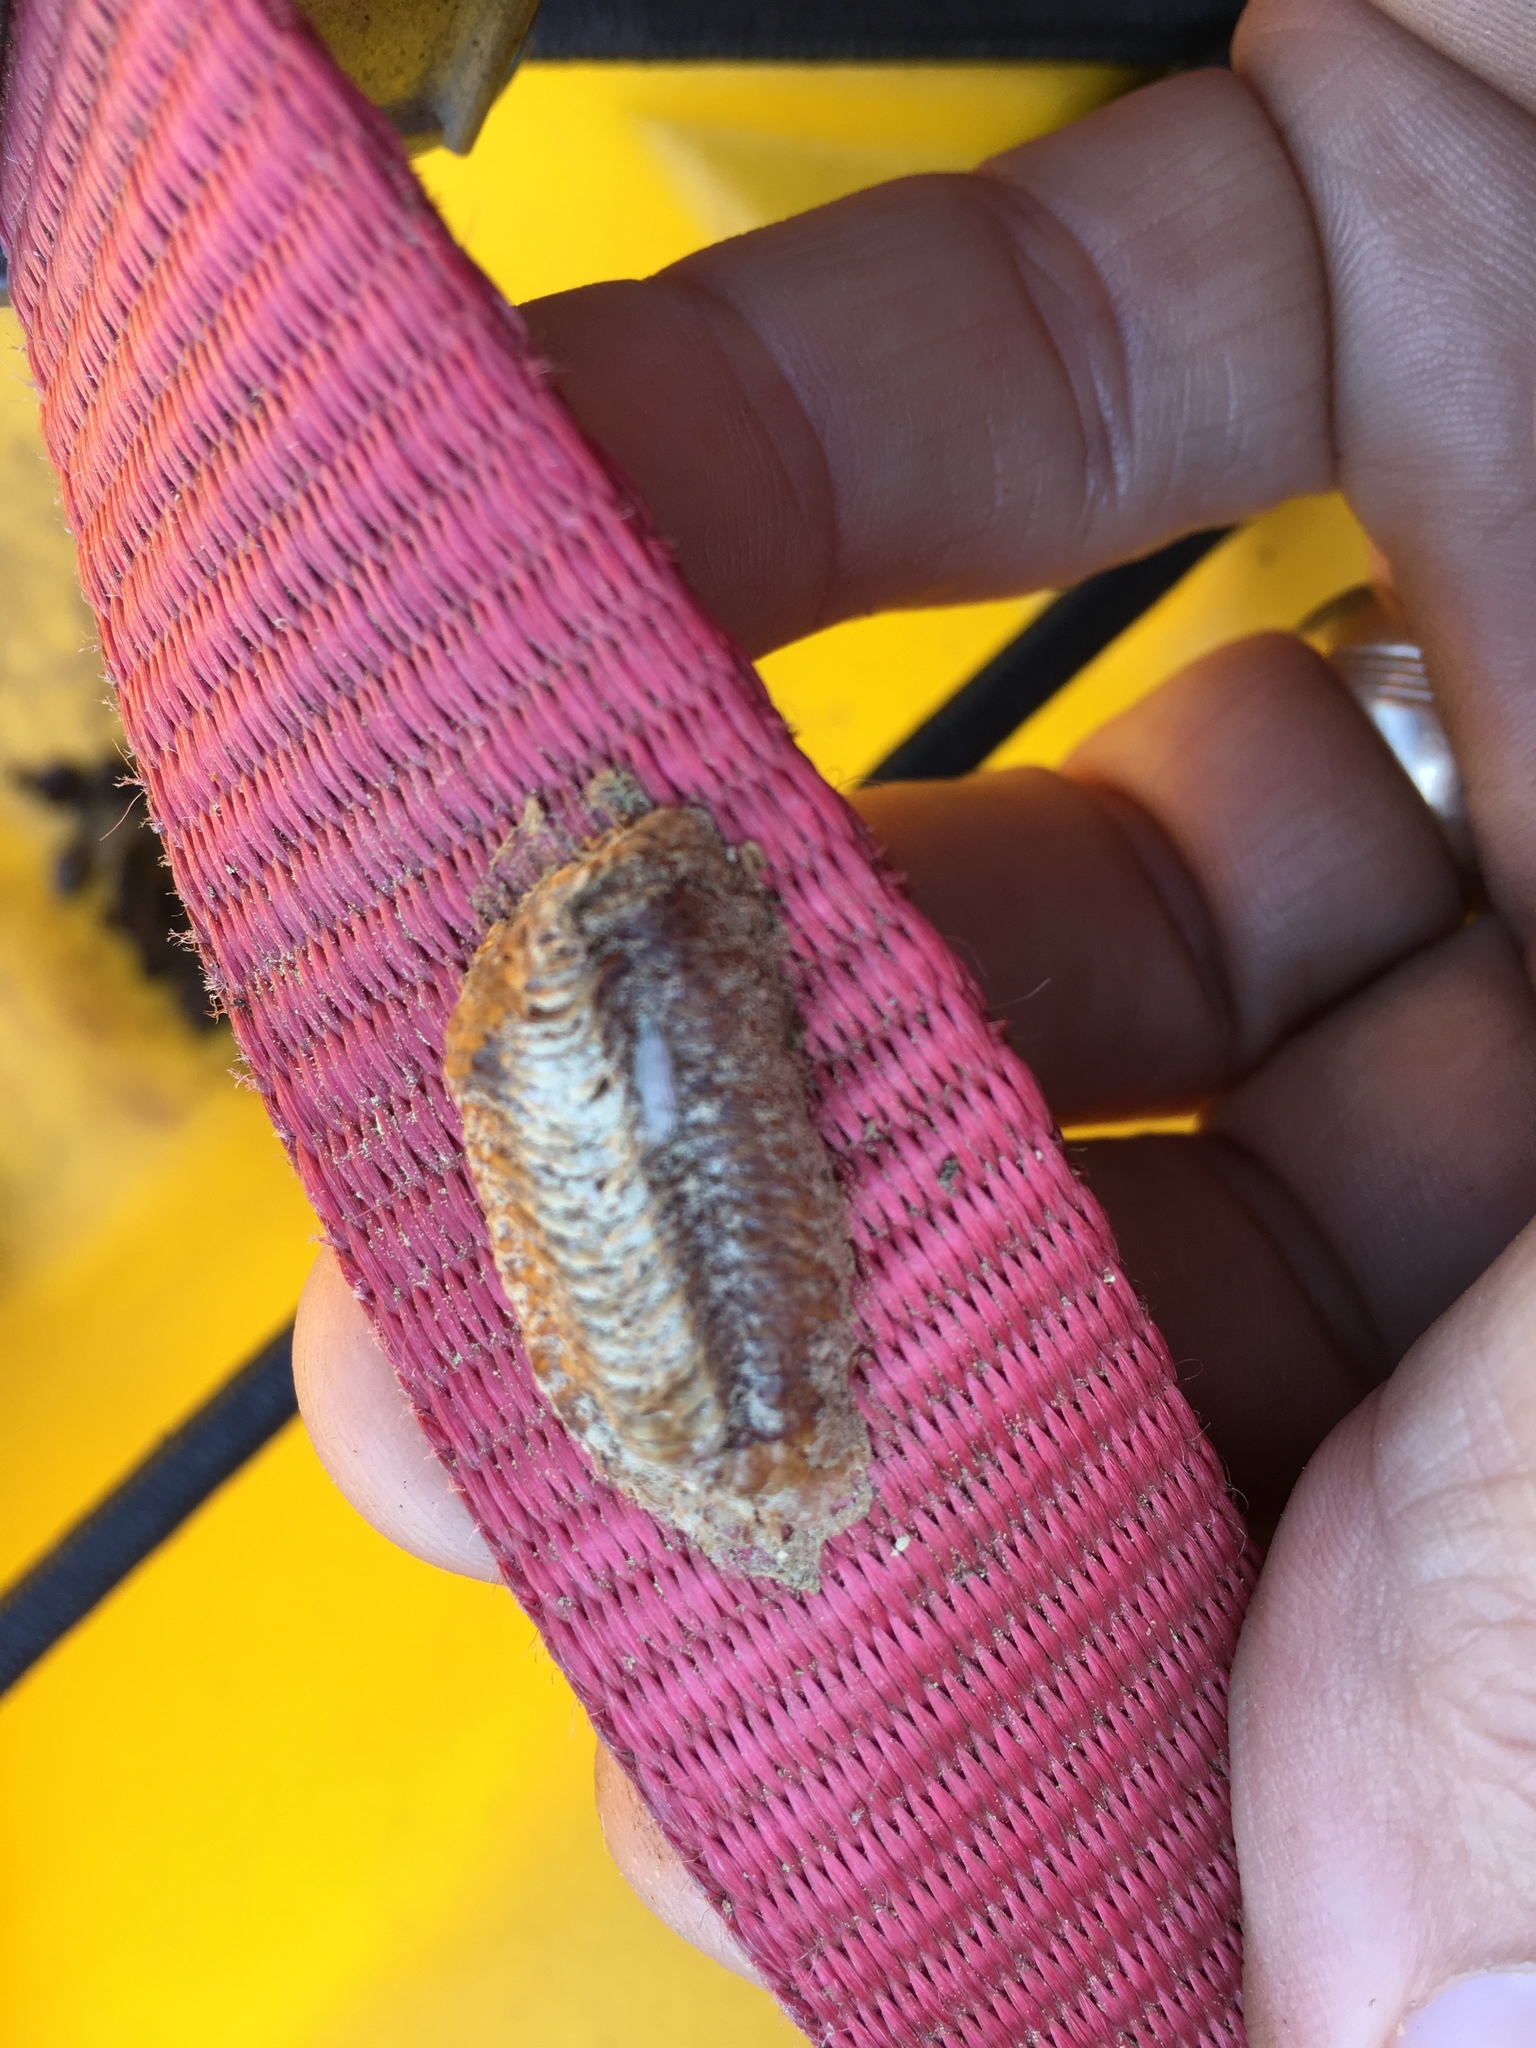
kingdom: Animalia
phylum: Arthropoda
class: Insecta
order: Mantodea
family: Mantidae
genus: Stagmomantis
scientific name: Stagmomantis carolina
